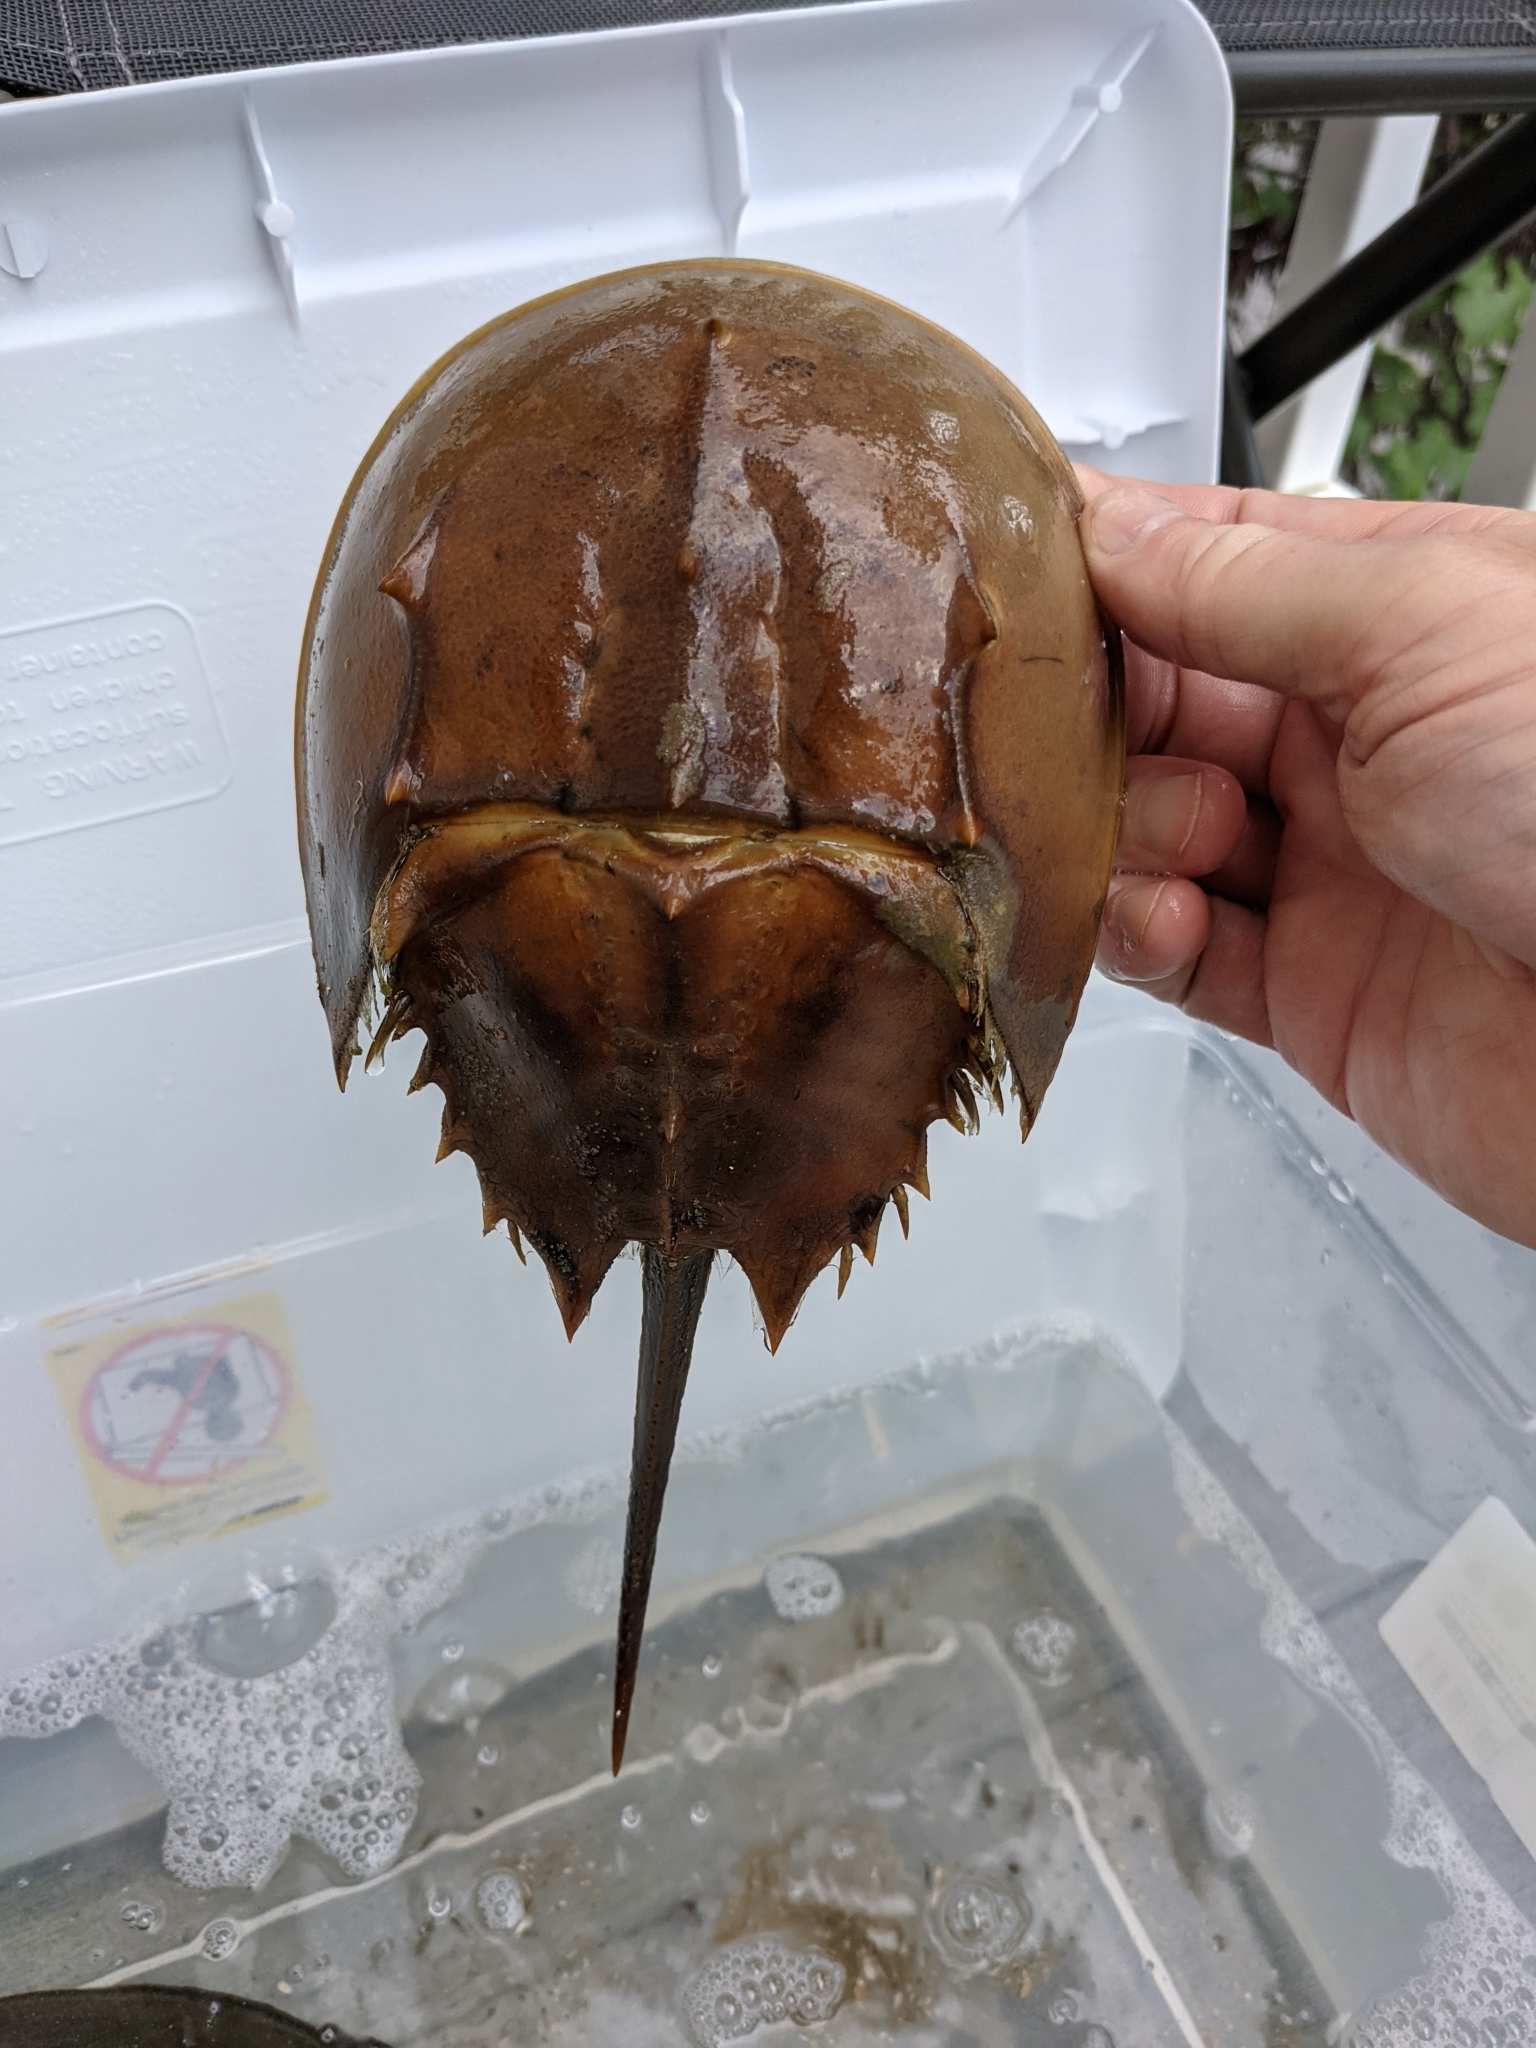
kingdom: Animalia
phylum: Arthropoda
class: Merostomata
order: Xiphosurida
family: Limulidae
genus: Limulus
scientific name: Limulus polyphemus
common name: Horseshoe crab
